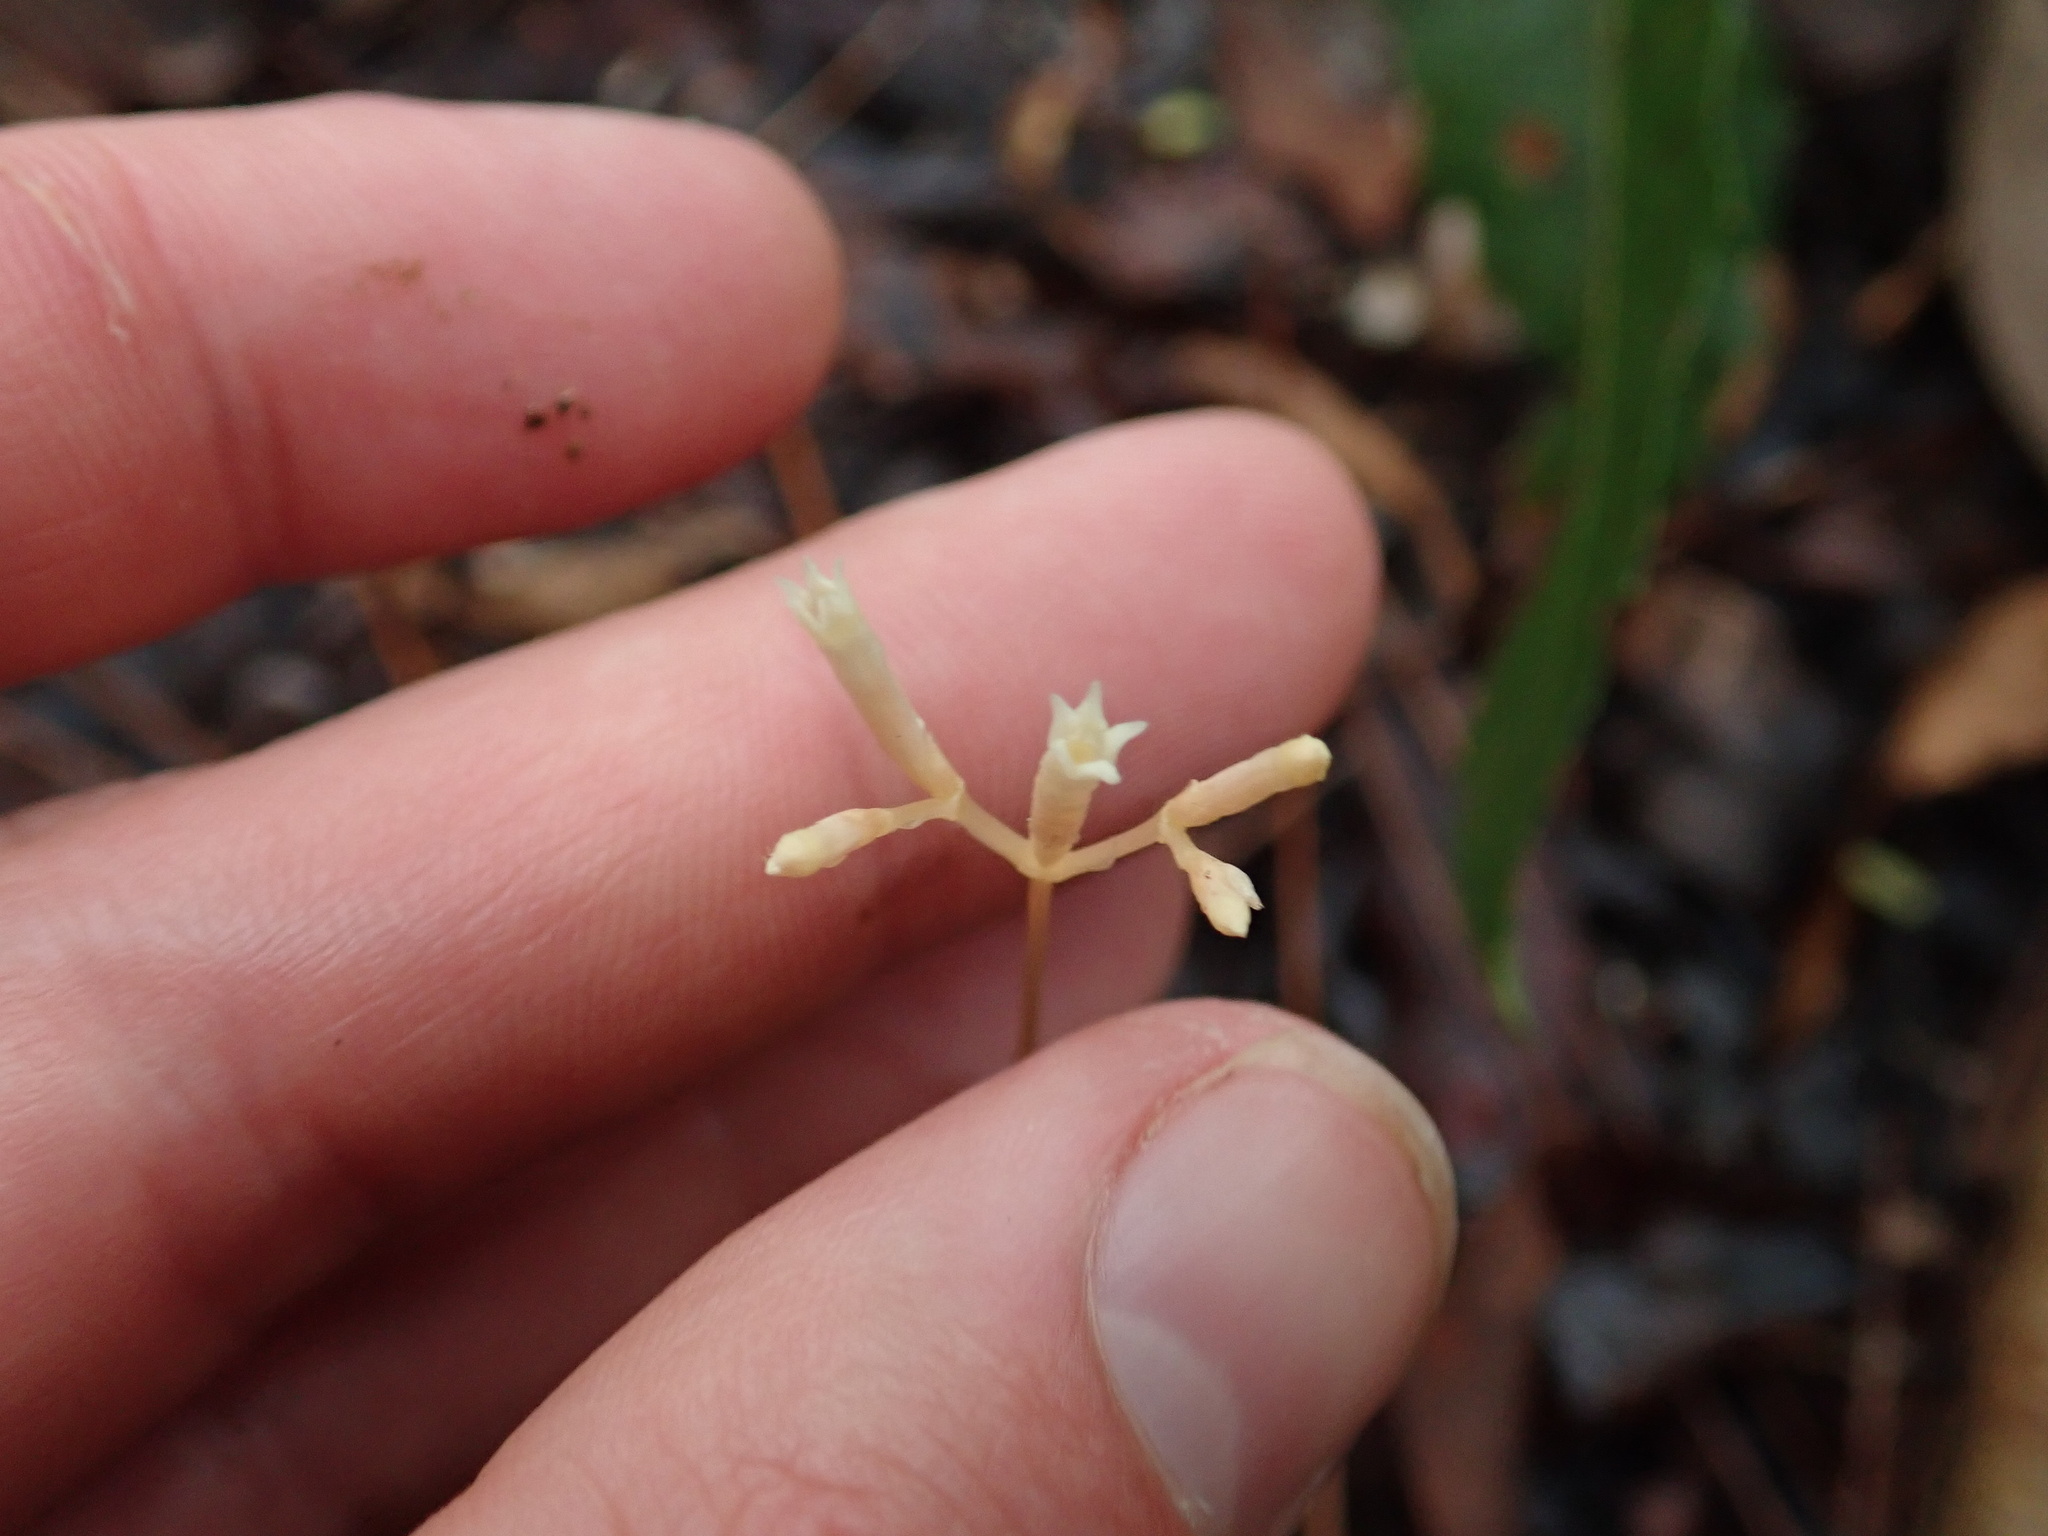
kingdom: Plantae
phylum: Tracheophyta
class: Magnoliopsida
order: Gentianales
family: Gentianaceae
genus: Voyria
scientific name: Voyria parasitica
